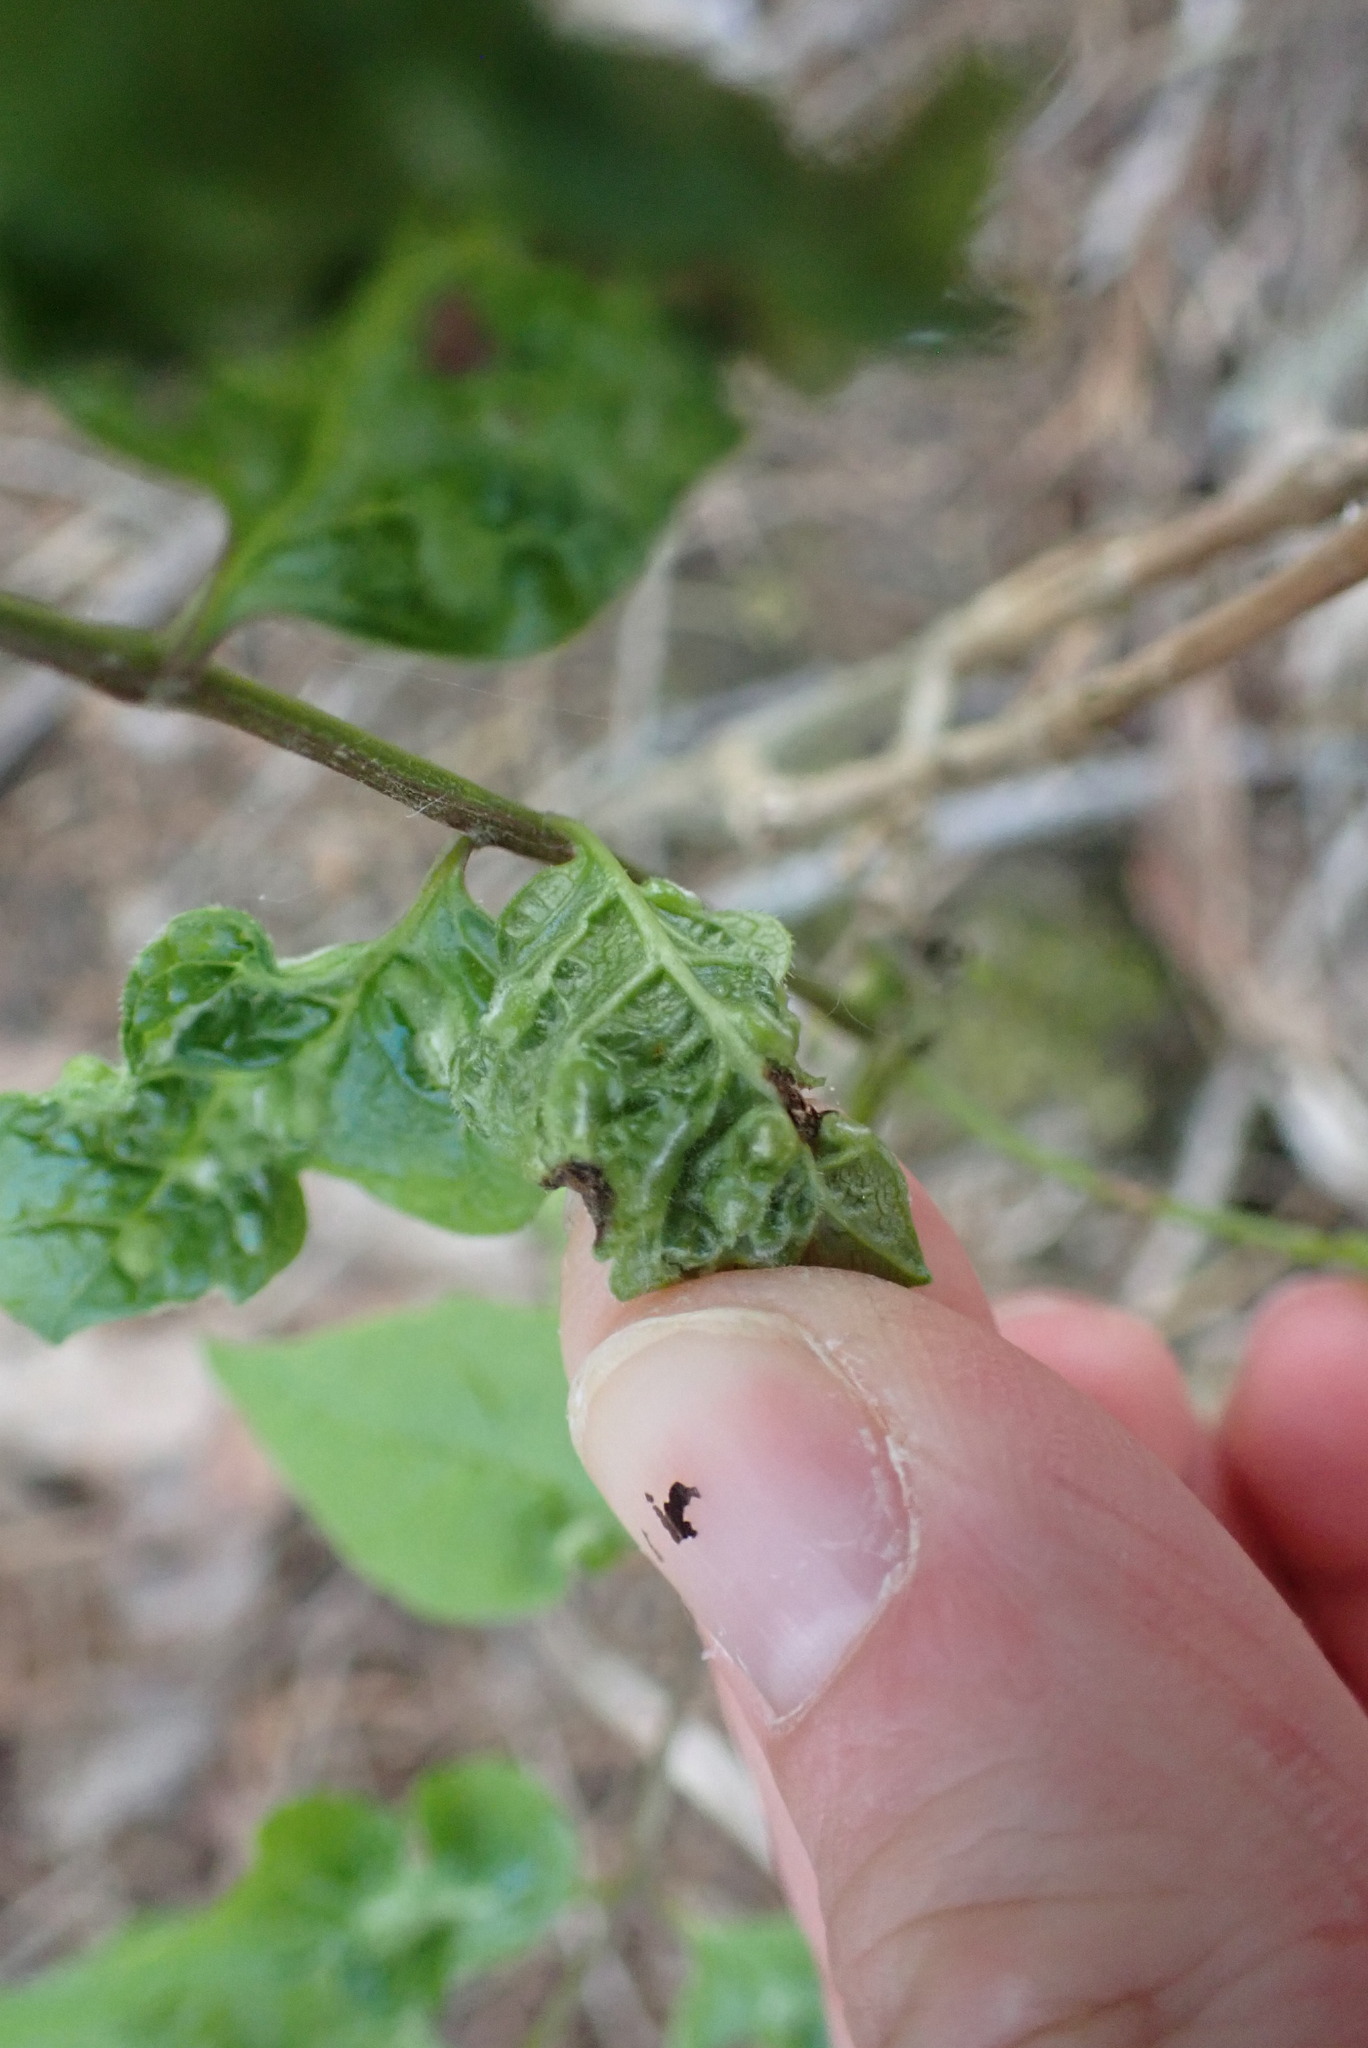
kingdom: Animalia
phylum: Arthropoda
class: Arachnida
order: Trombidiformes
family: Eriophyidae
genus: Aceria
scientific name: Aceria fraxinicola
